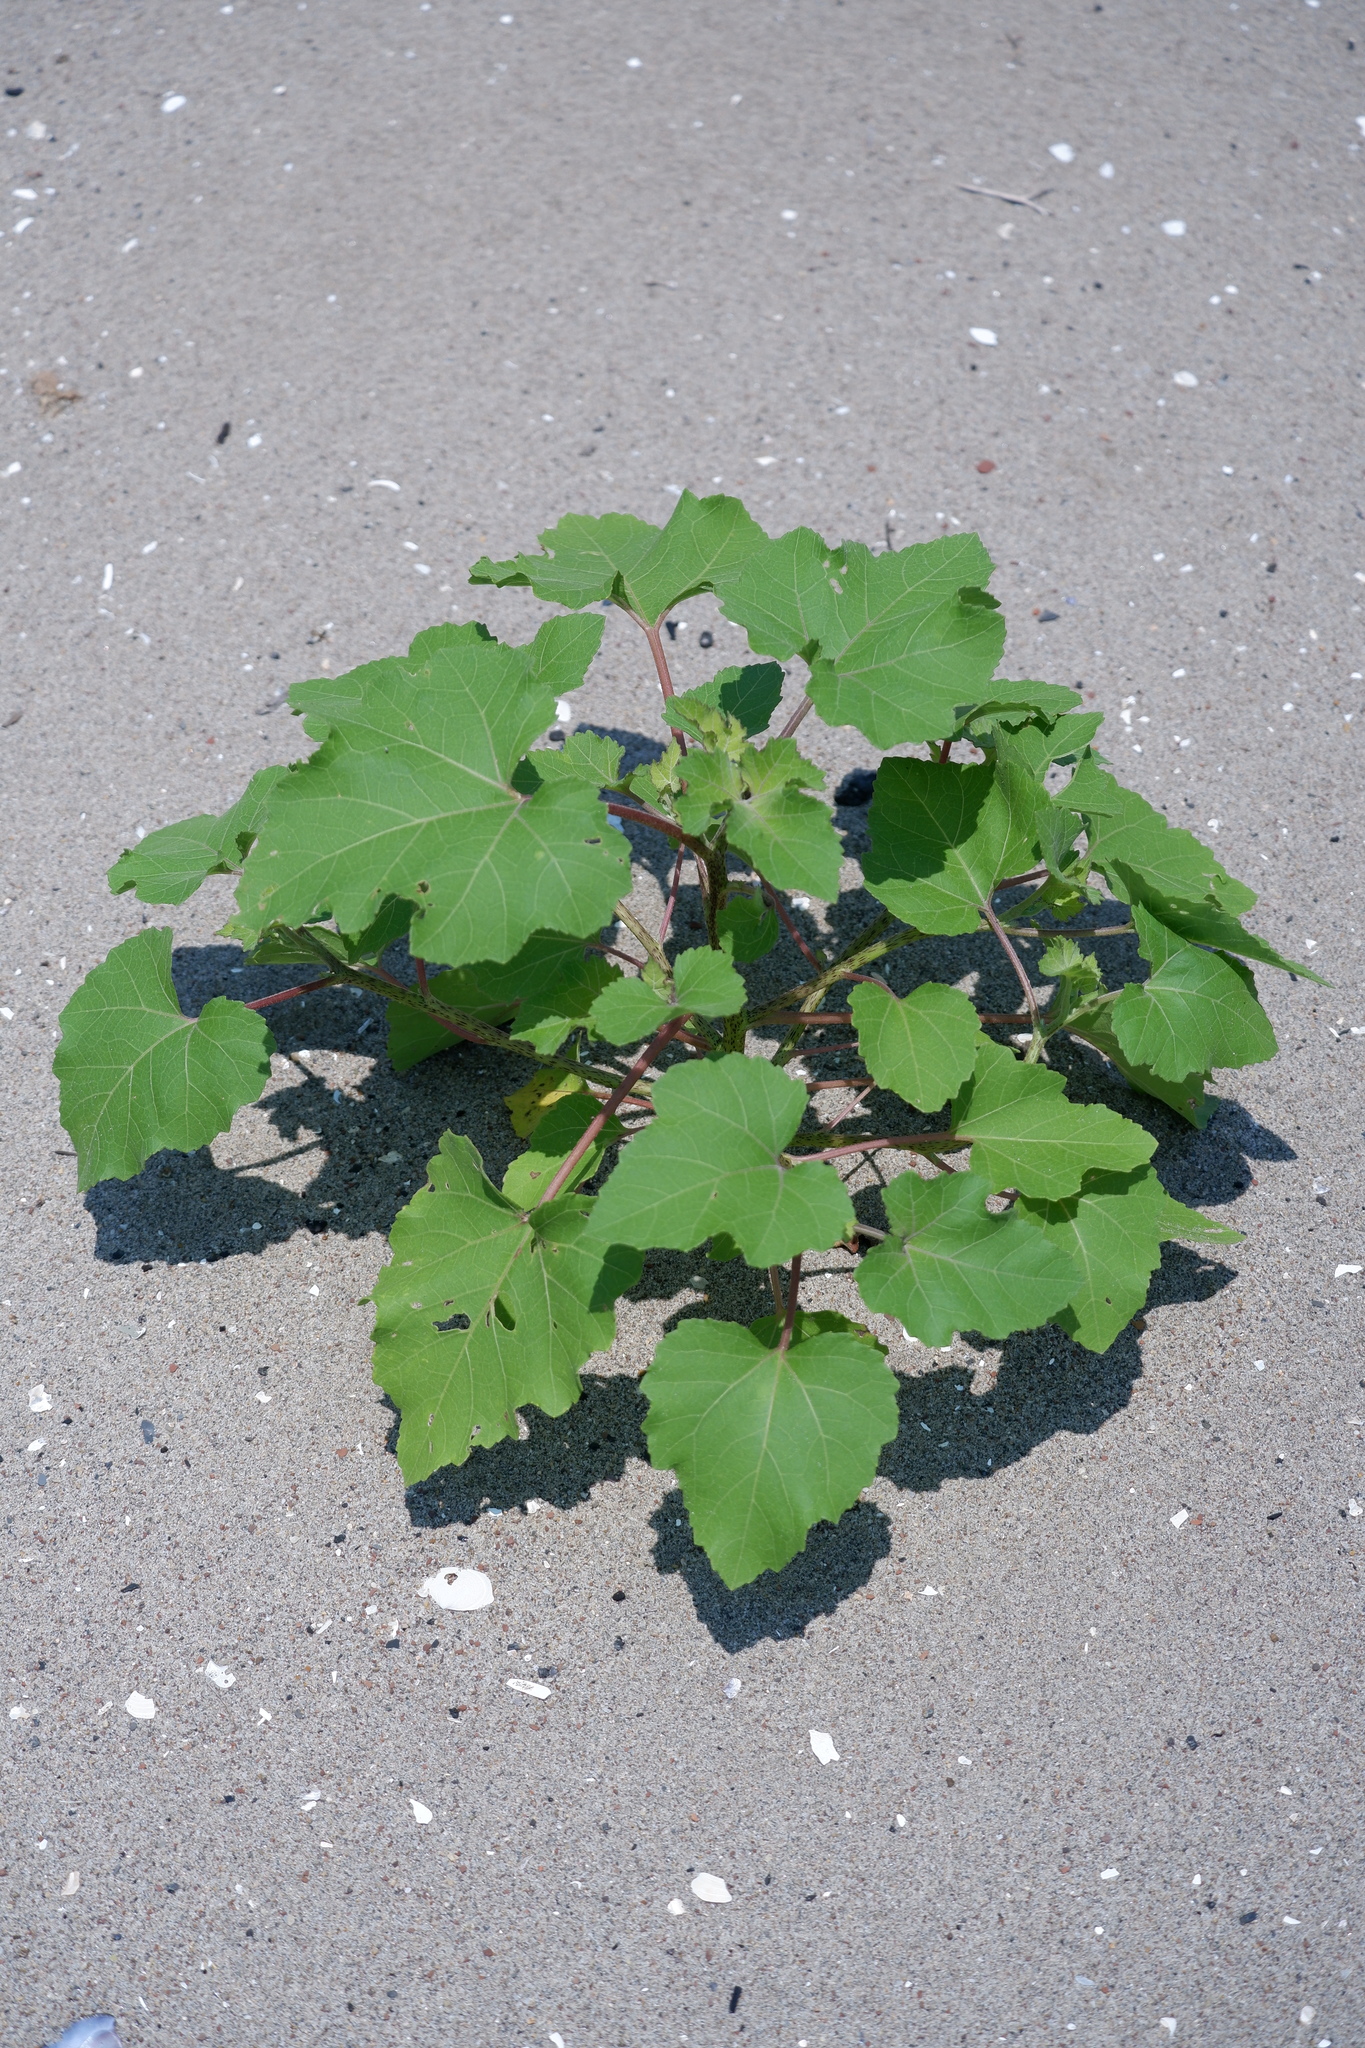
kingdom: Plantae
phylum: Tracheophyta
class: Magnoliopsida
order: Asterales
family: Asteraceae
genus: Xanthium
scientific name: Xanthium strumarium
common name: Rough cocklebur
